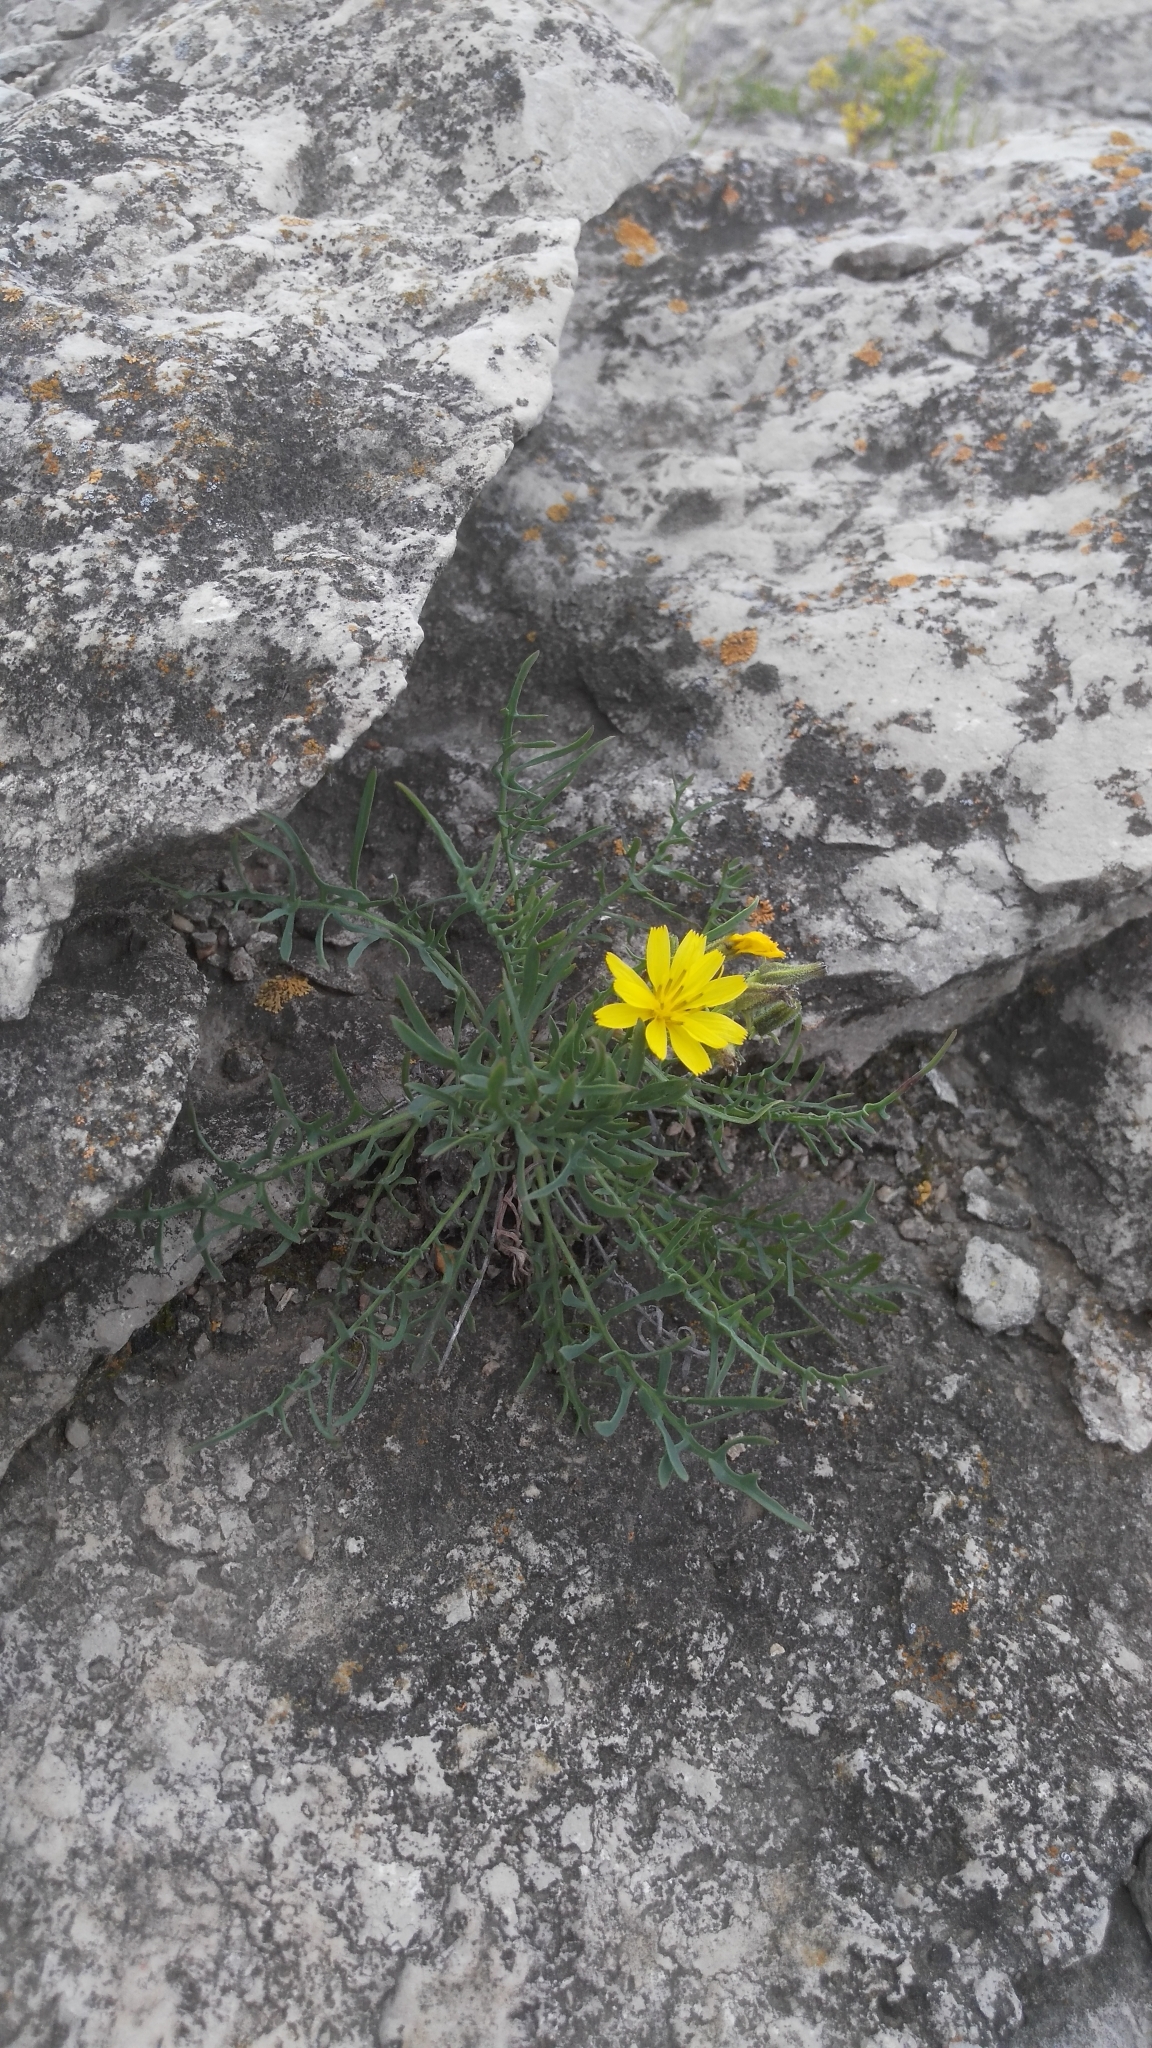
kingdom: Plantae
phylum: Tracheophyta
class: Magnoliopsida
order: Asterales
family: Asteraceae
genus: Crepidiastrum
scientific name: Crepidiastrum tenuifolium
